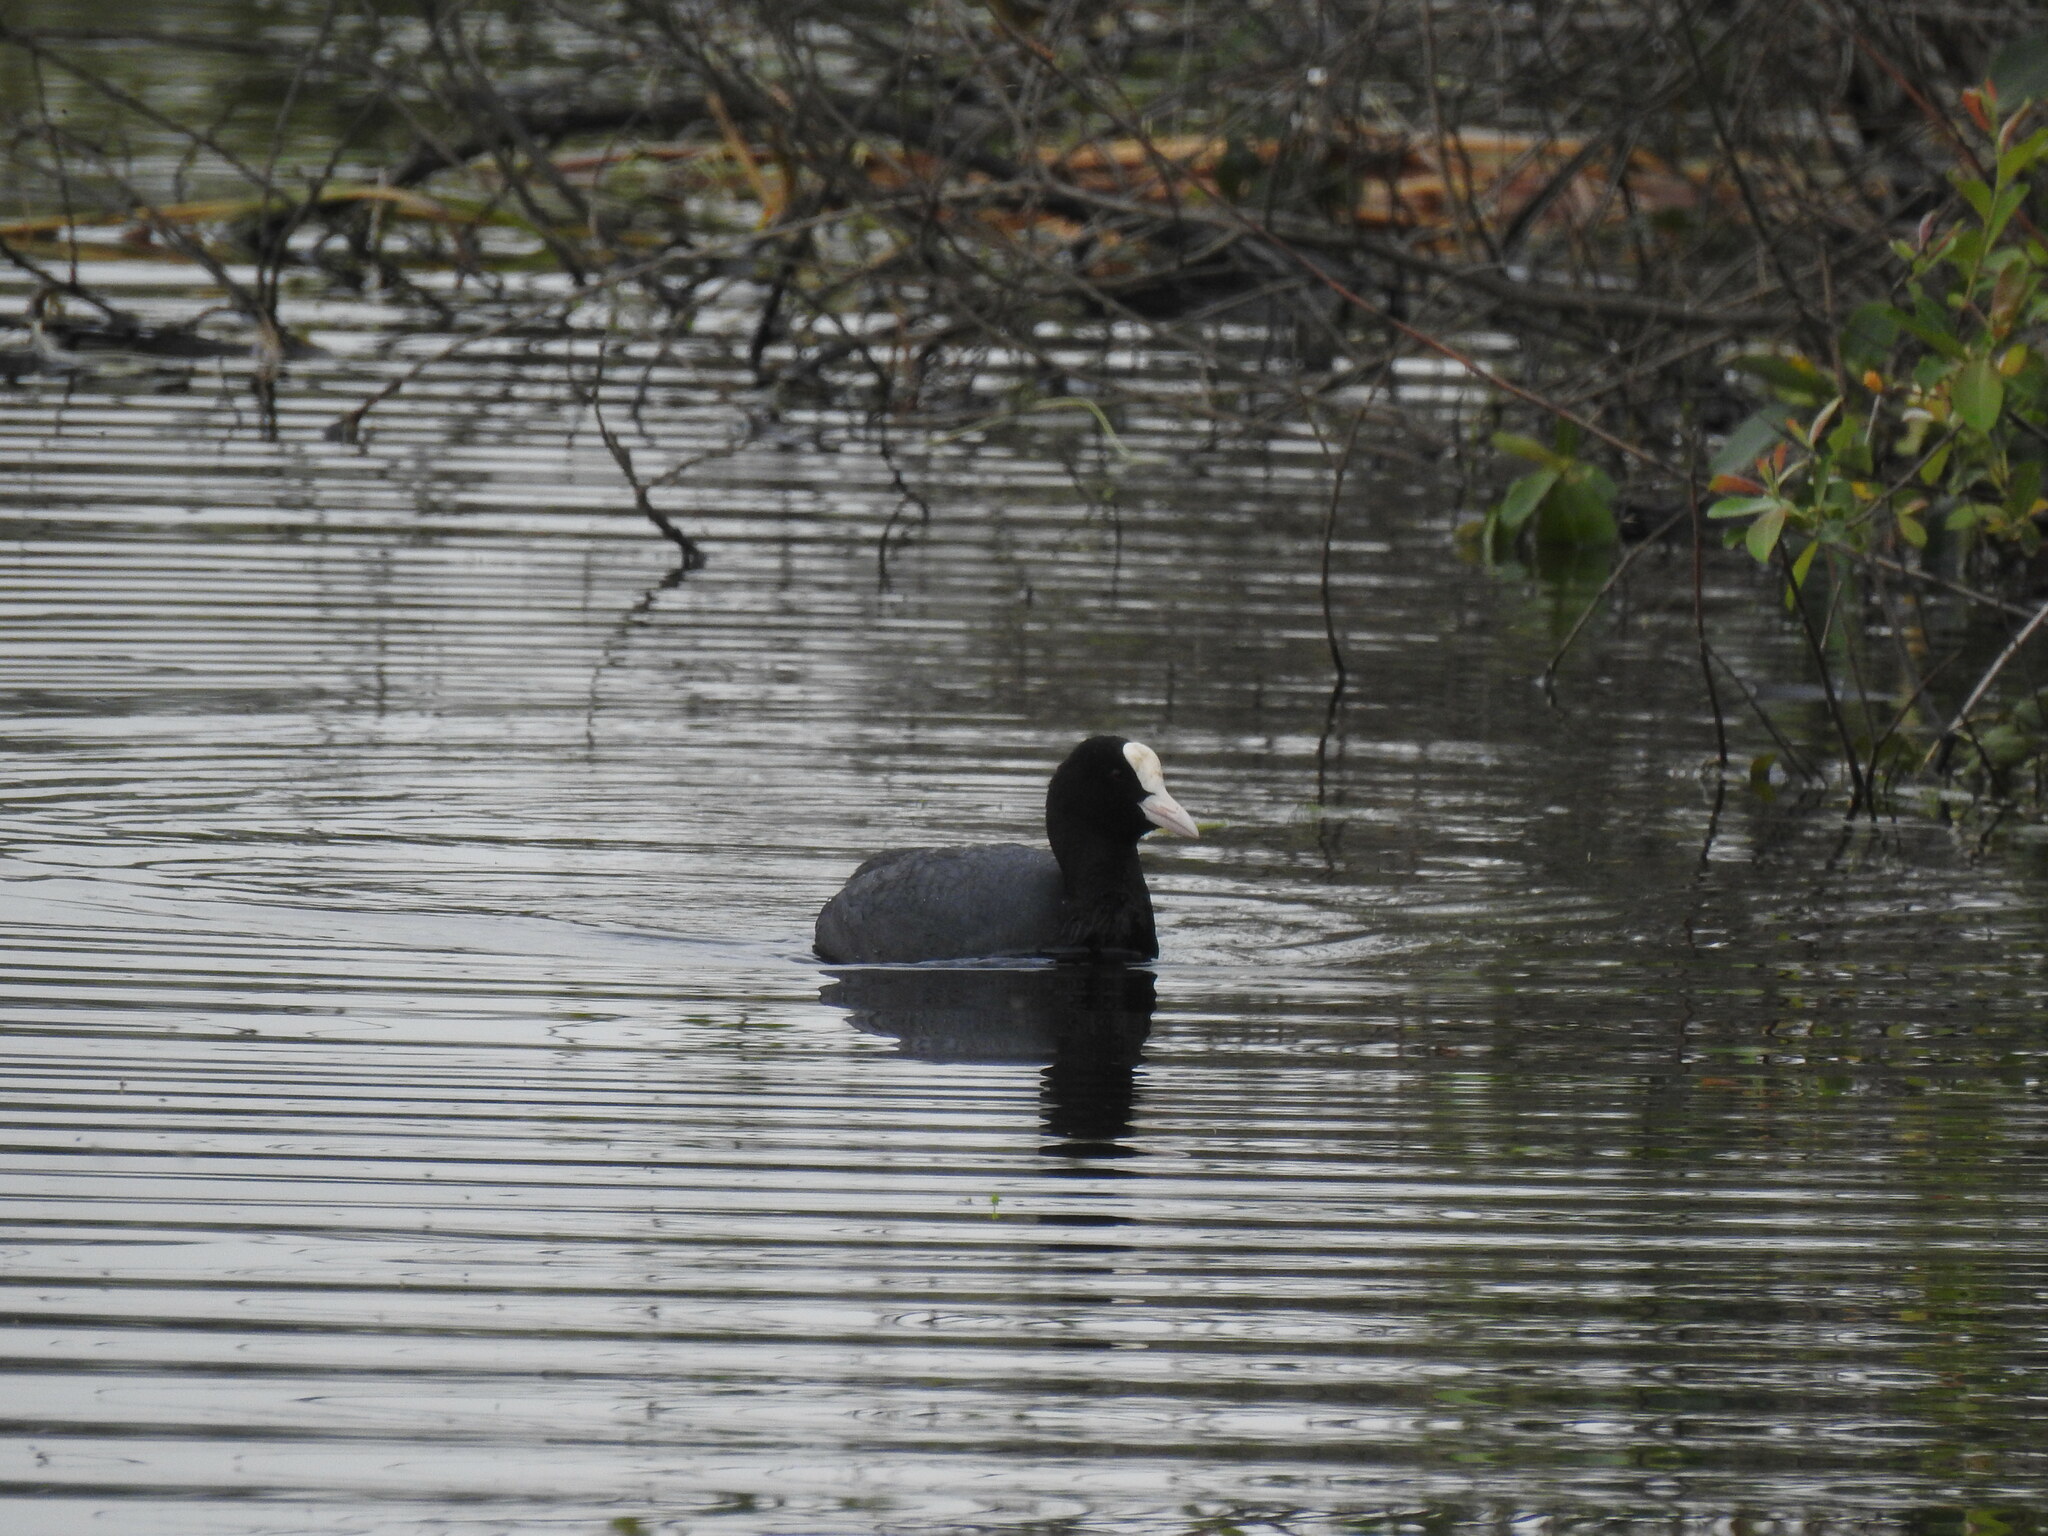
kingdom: Animalia
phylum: Chordata
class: Aves
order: Gruiformes
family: Rallidae
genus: Fulica
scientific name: Fulica atra
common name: Eurasian coot
